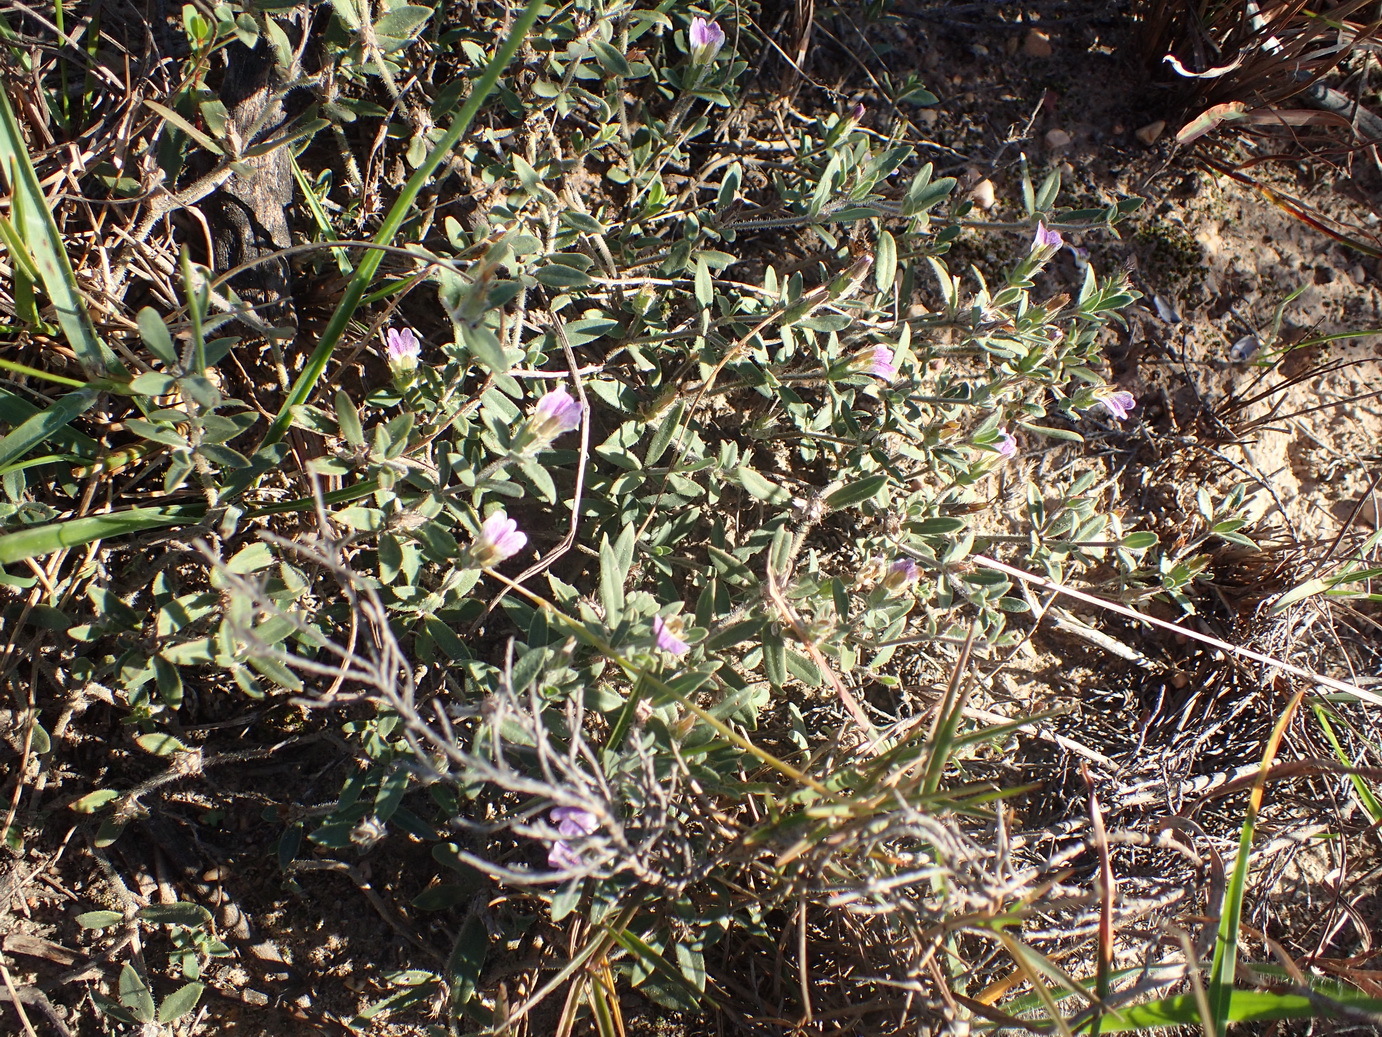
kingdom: Plantae
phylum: Tracheophyta
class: Magnoliopsida
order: Lamiales
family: Acanthaceae
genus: Blepharis
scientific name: Blepharis integrifolia
